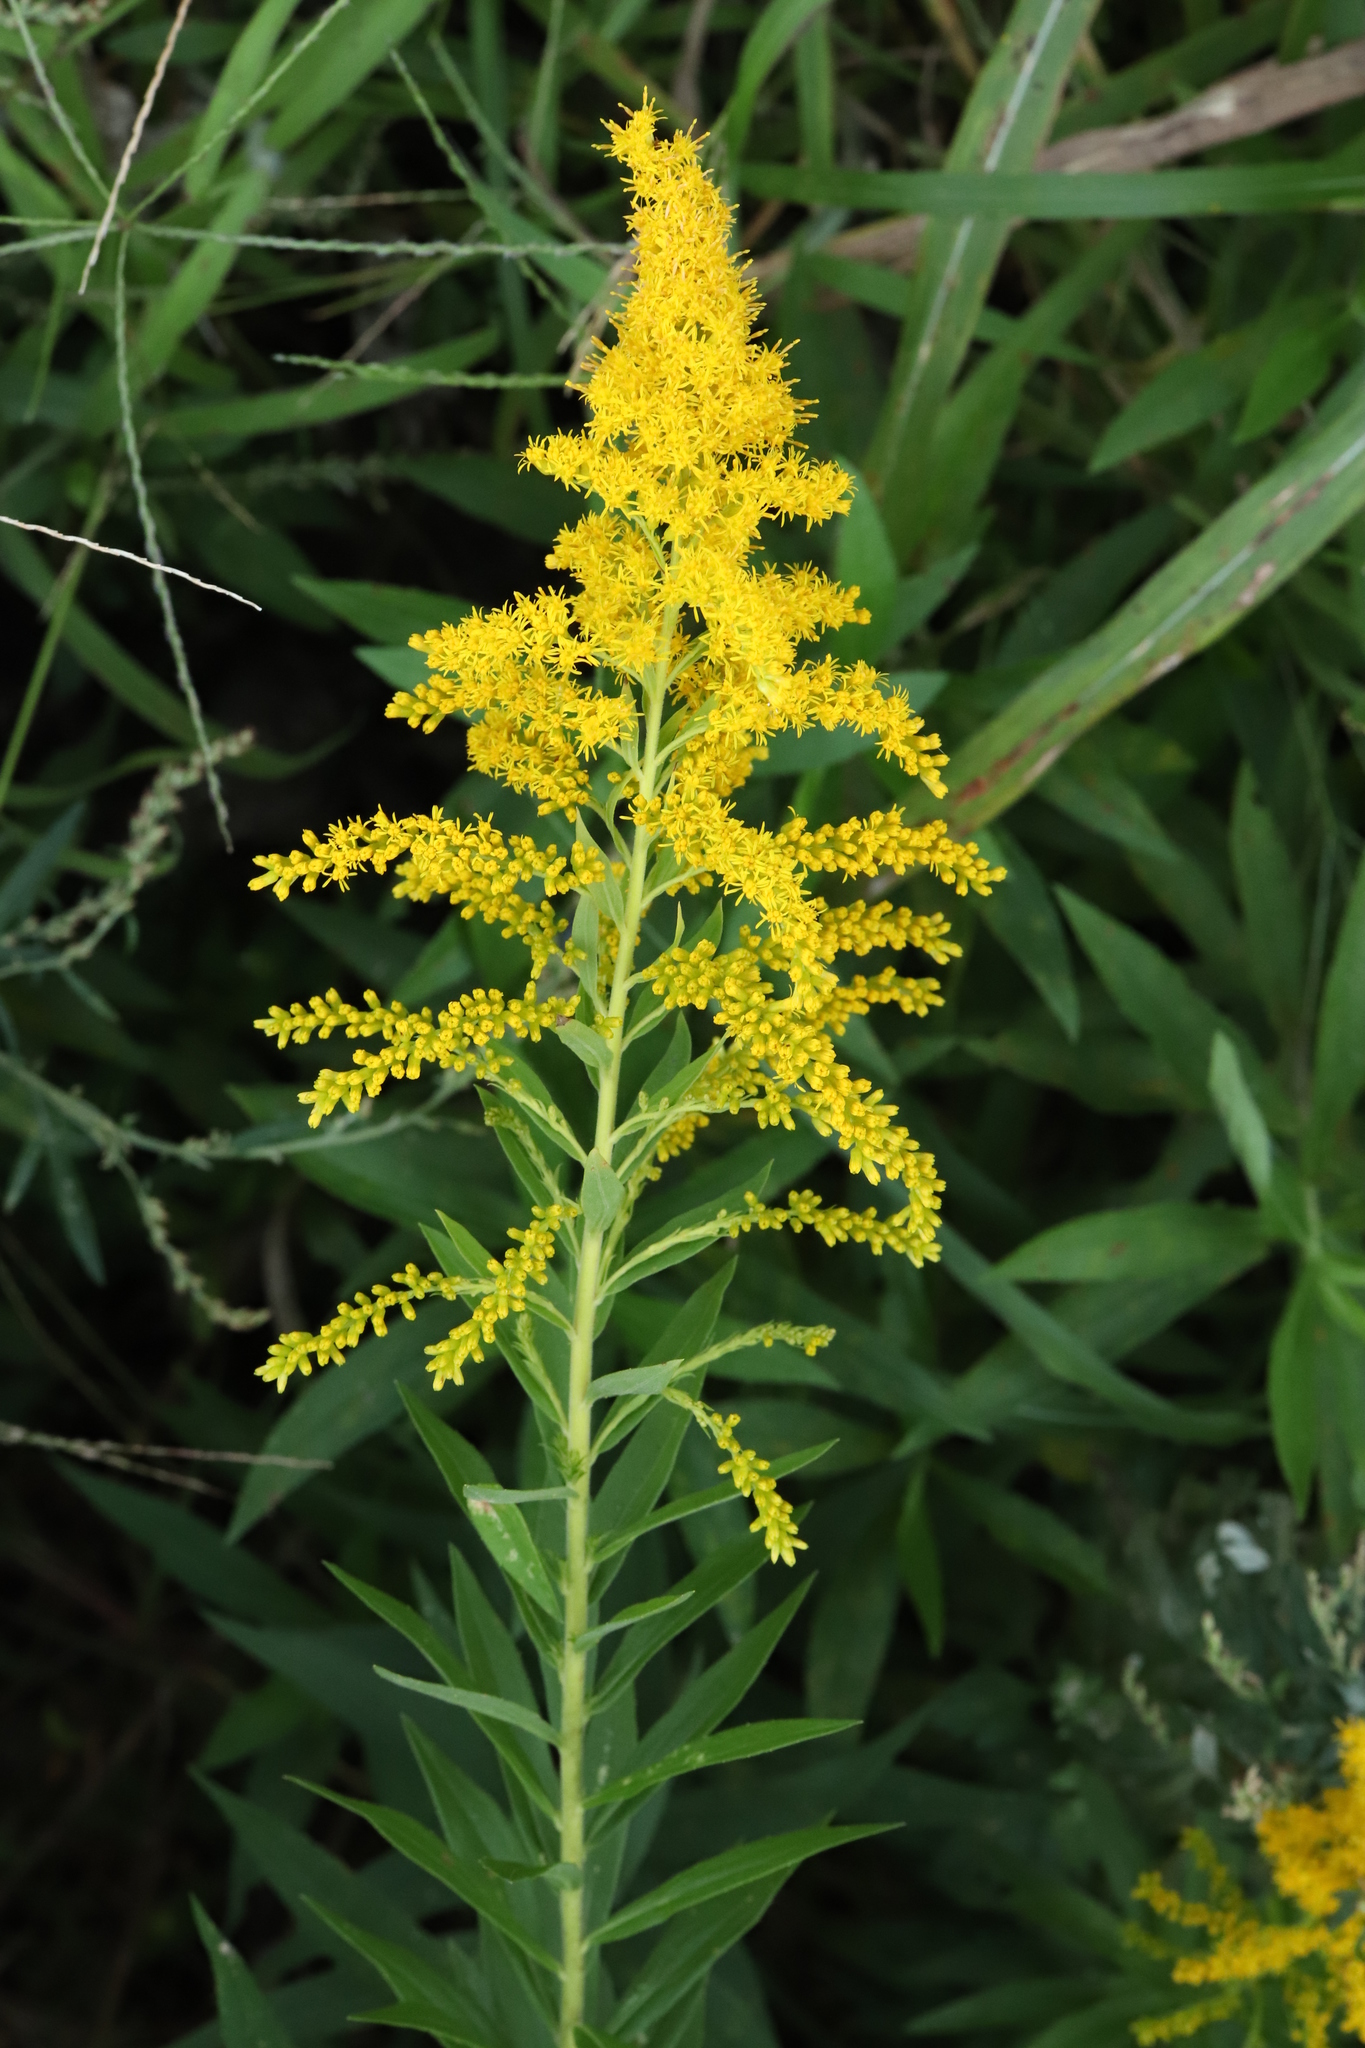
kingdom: Plantae
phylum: Tracheophyta
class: Magnoliopsida
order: Asterales
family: Asteraceae
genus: Solidago
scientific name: Solidago altissima
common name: Late goldenrod
